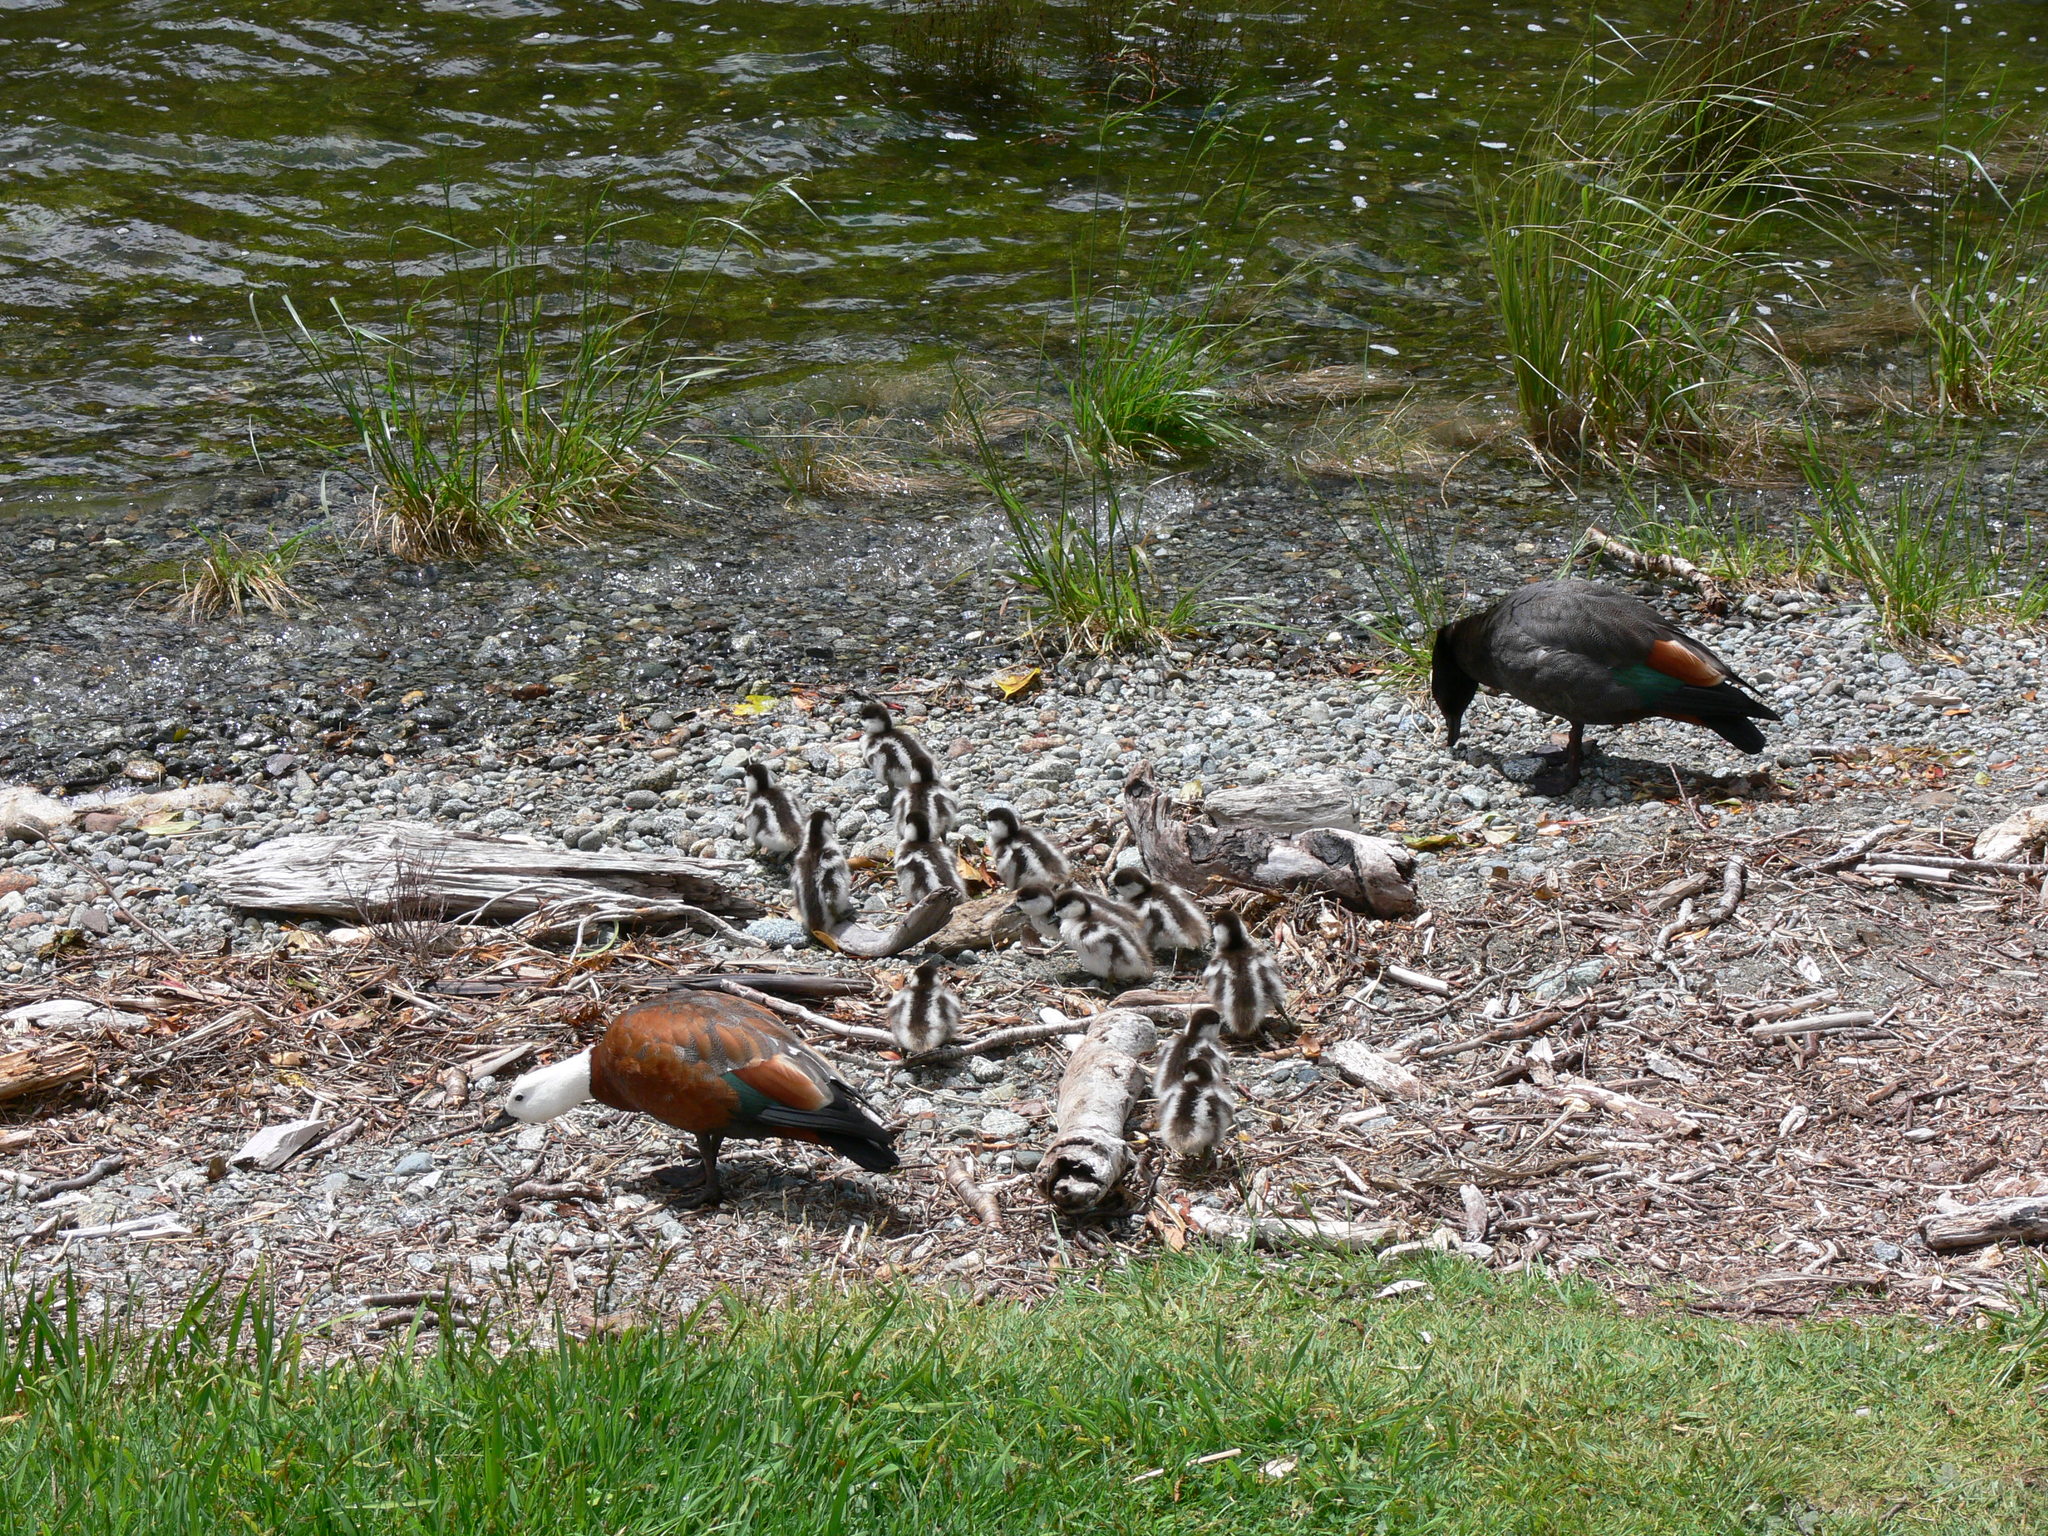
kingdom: Animalia
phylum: Chordata
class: Aves
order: Anseriformes
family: Anatidae
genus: Tadorna
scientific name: Tadorna variegata
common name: Paradise shelduck
